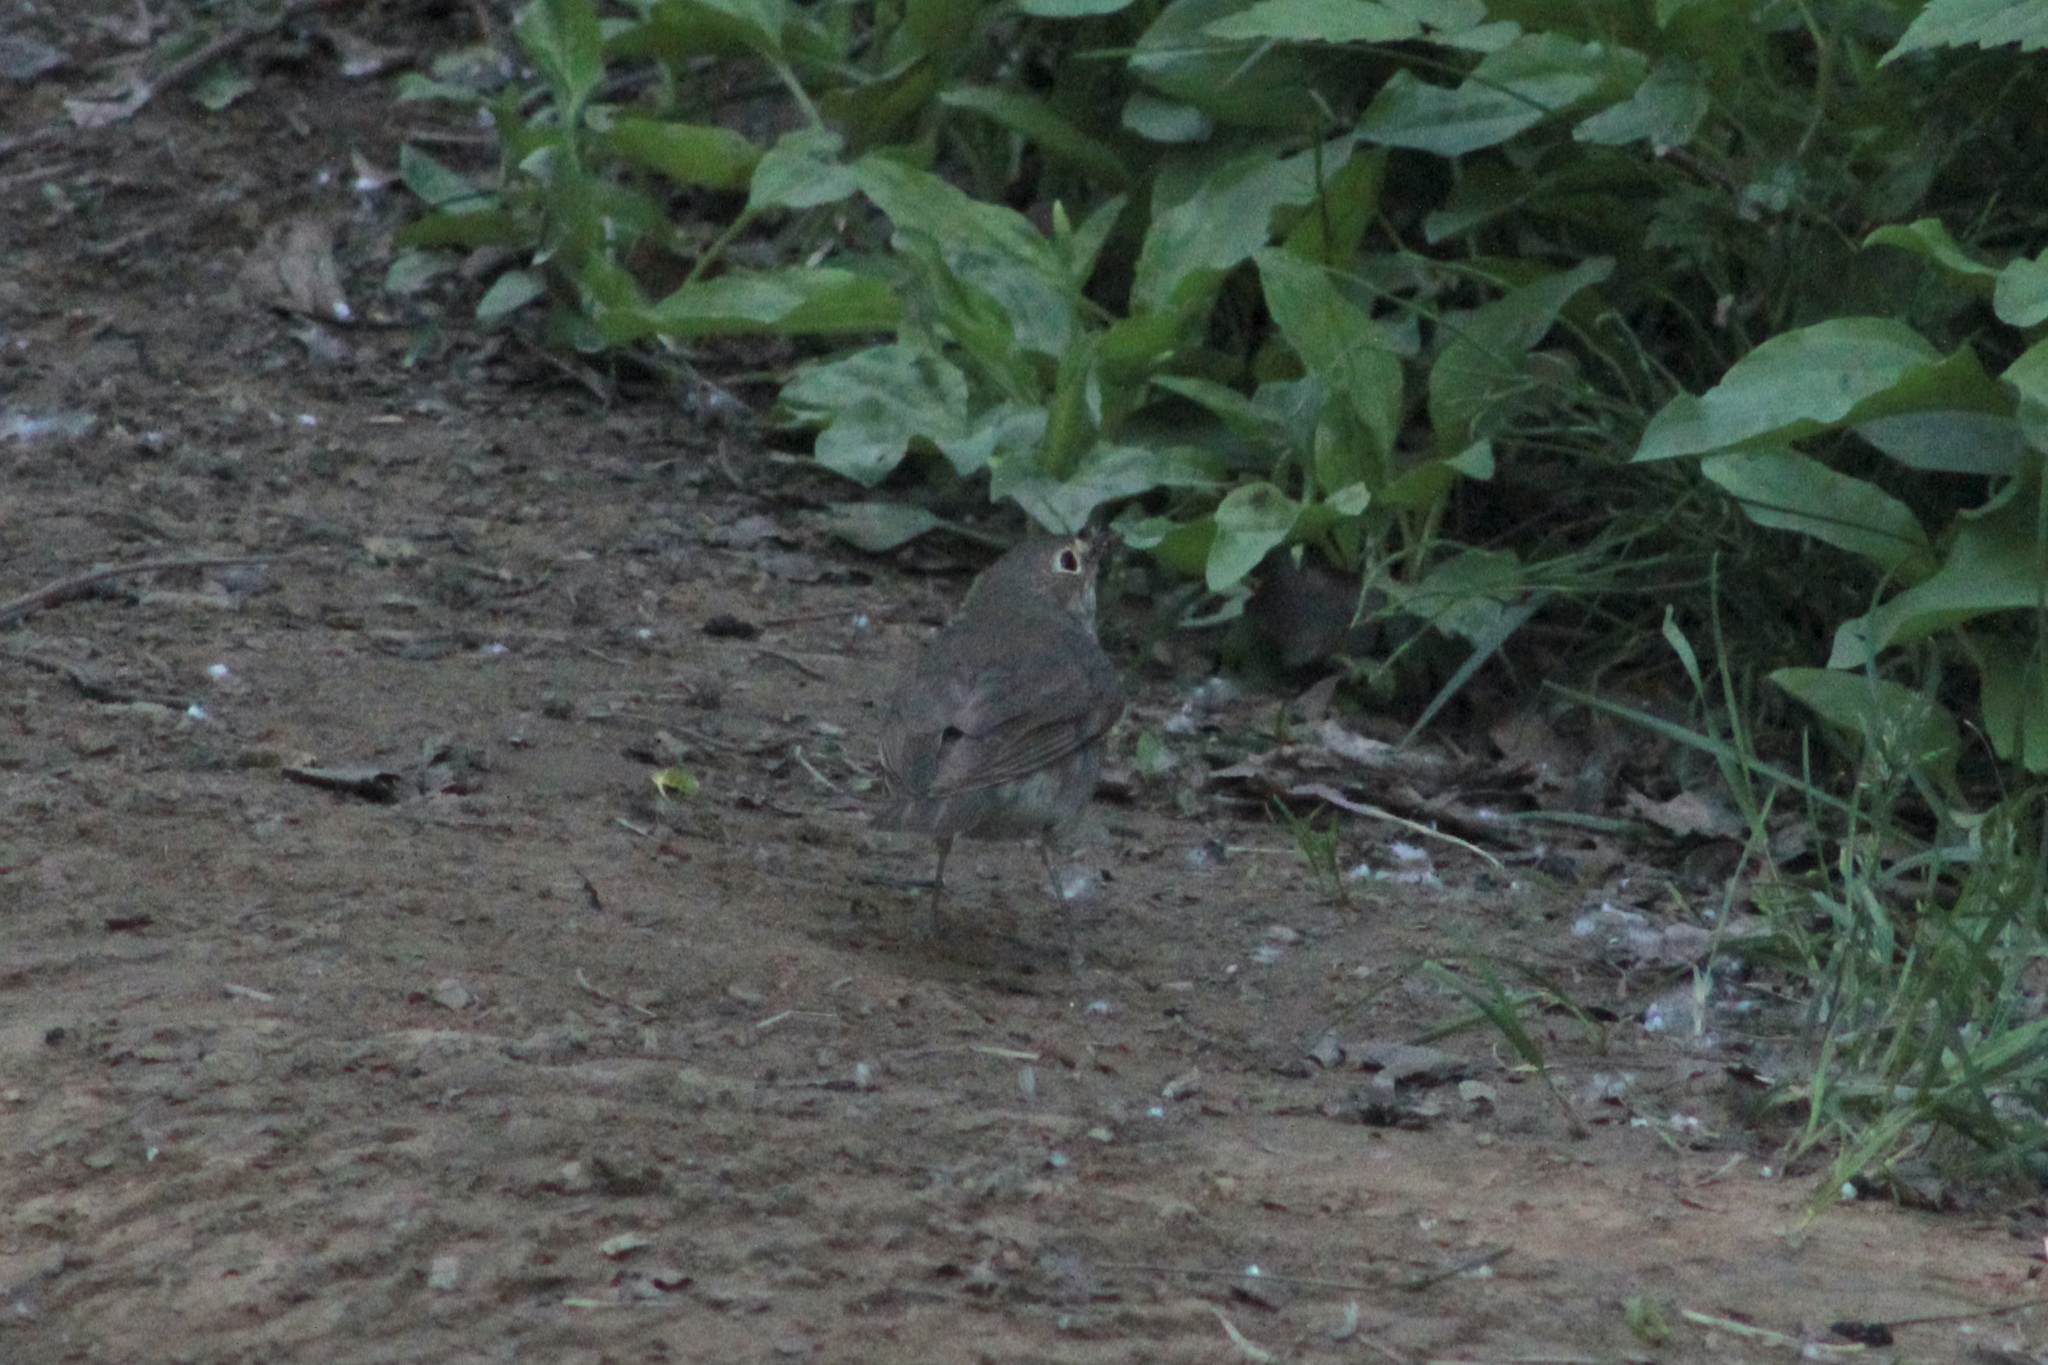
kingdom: Animalia
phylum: Chordata
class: Aves
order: Passeriformes
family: Turdidae
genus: Catharus
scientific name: Catharus ustulatus
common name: Swainson's thrush
